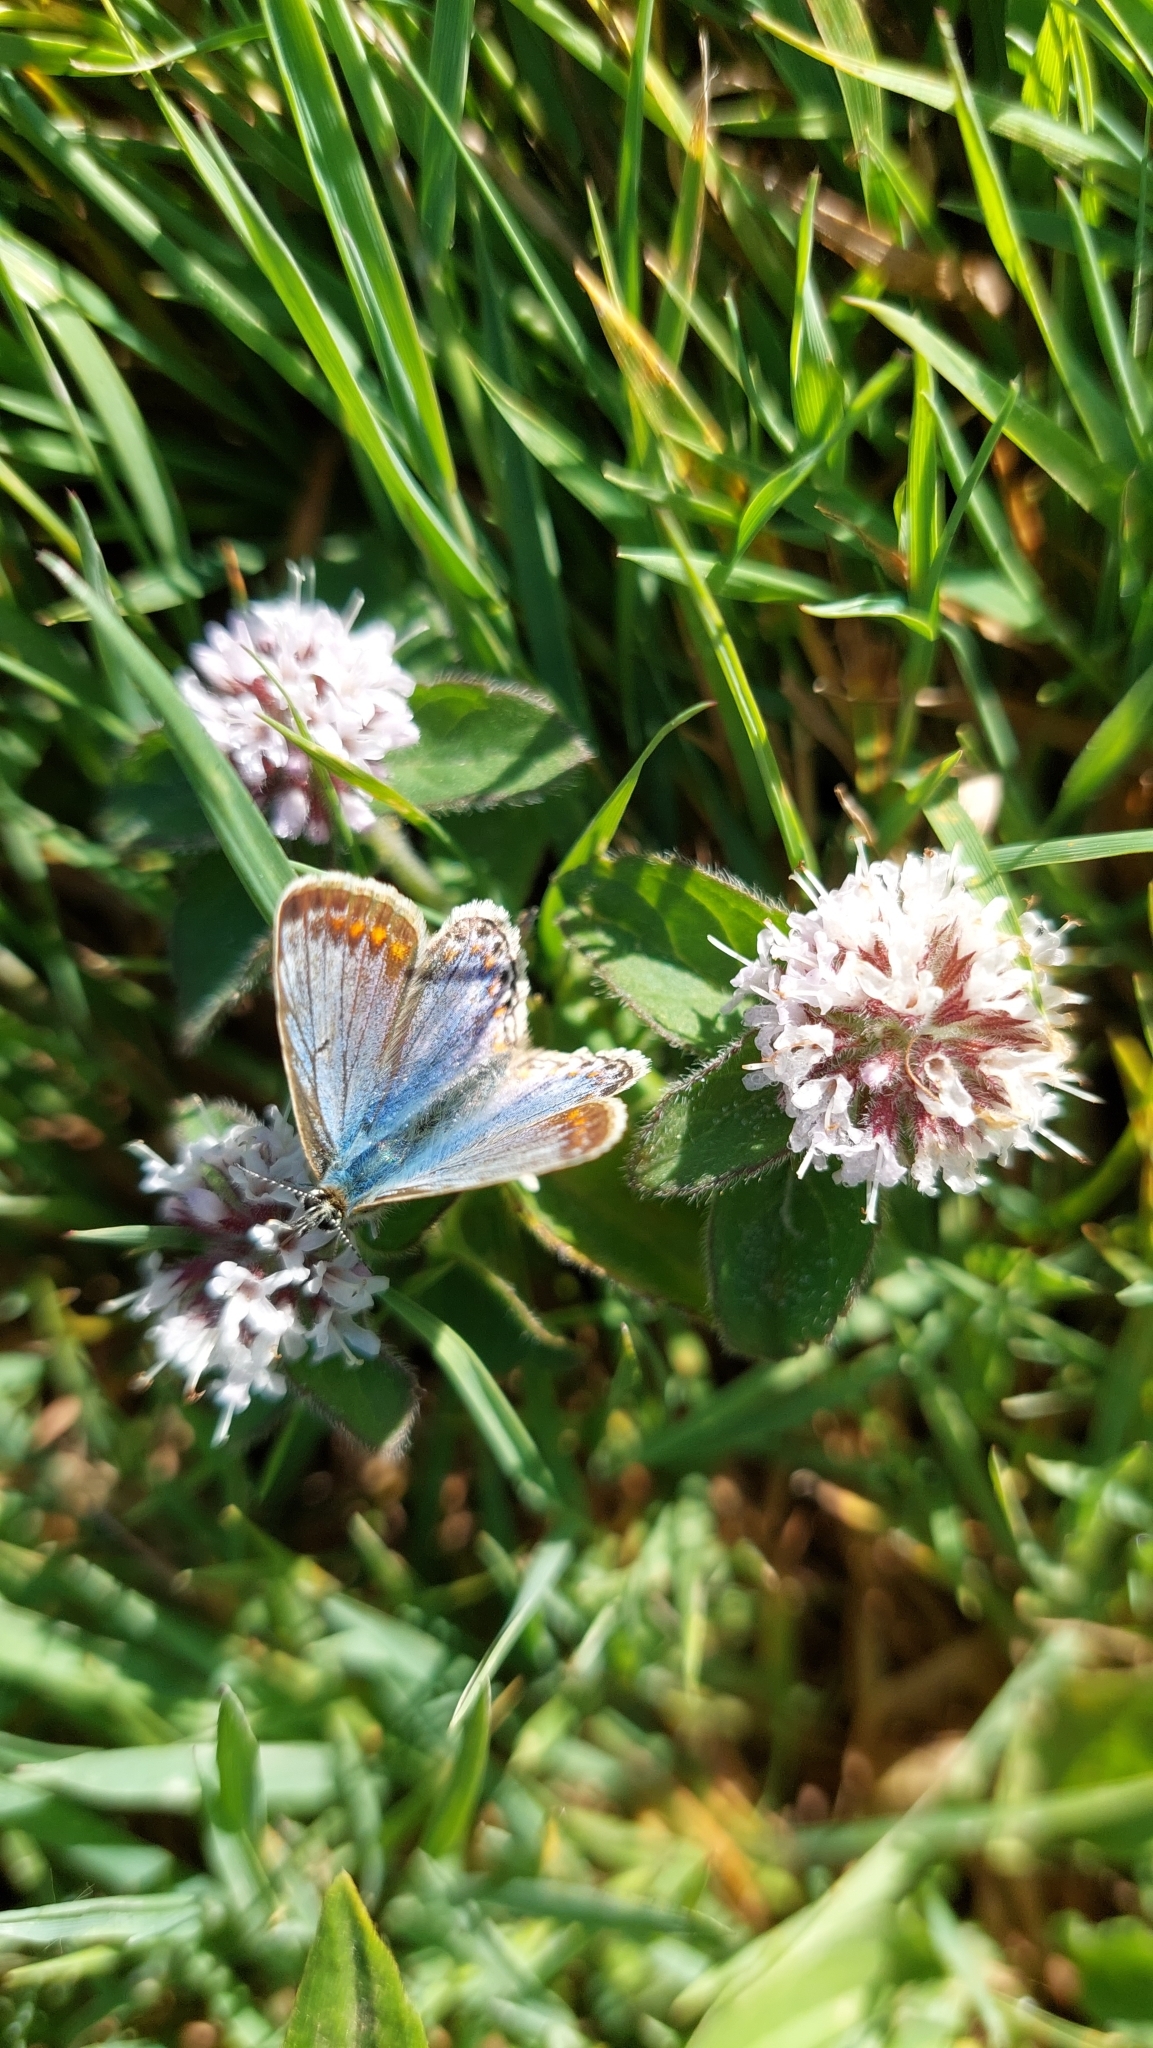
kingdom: Animalia
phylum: Arthropoda
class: Insecta
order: Lepidoptera
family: Lycaenidae
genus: Polyommatus
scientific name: Polyommatus icarus
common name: Common blue
